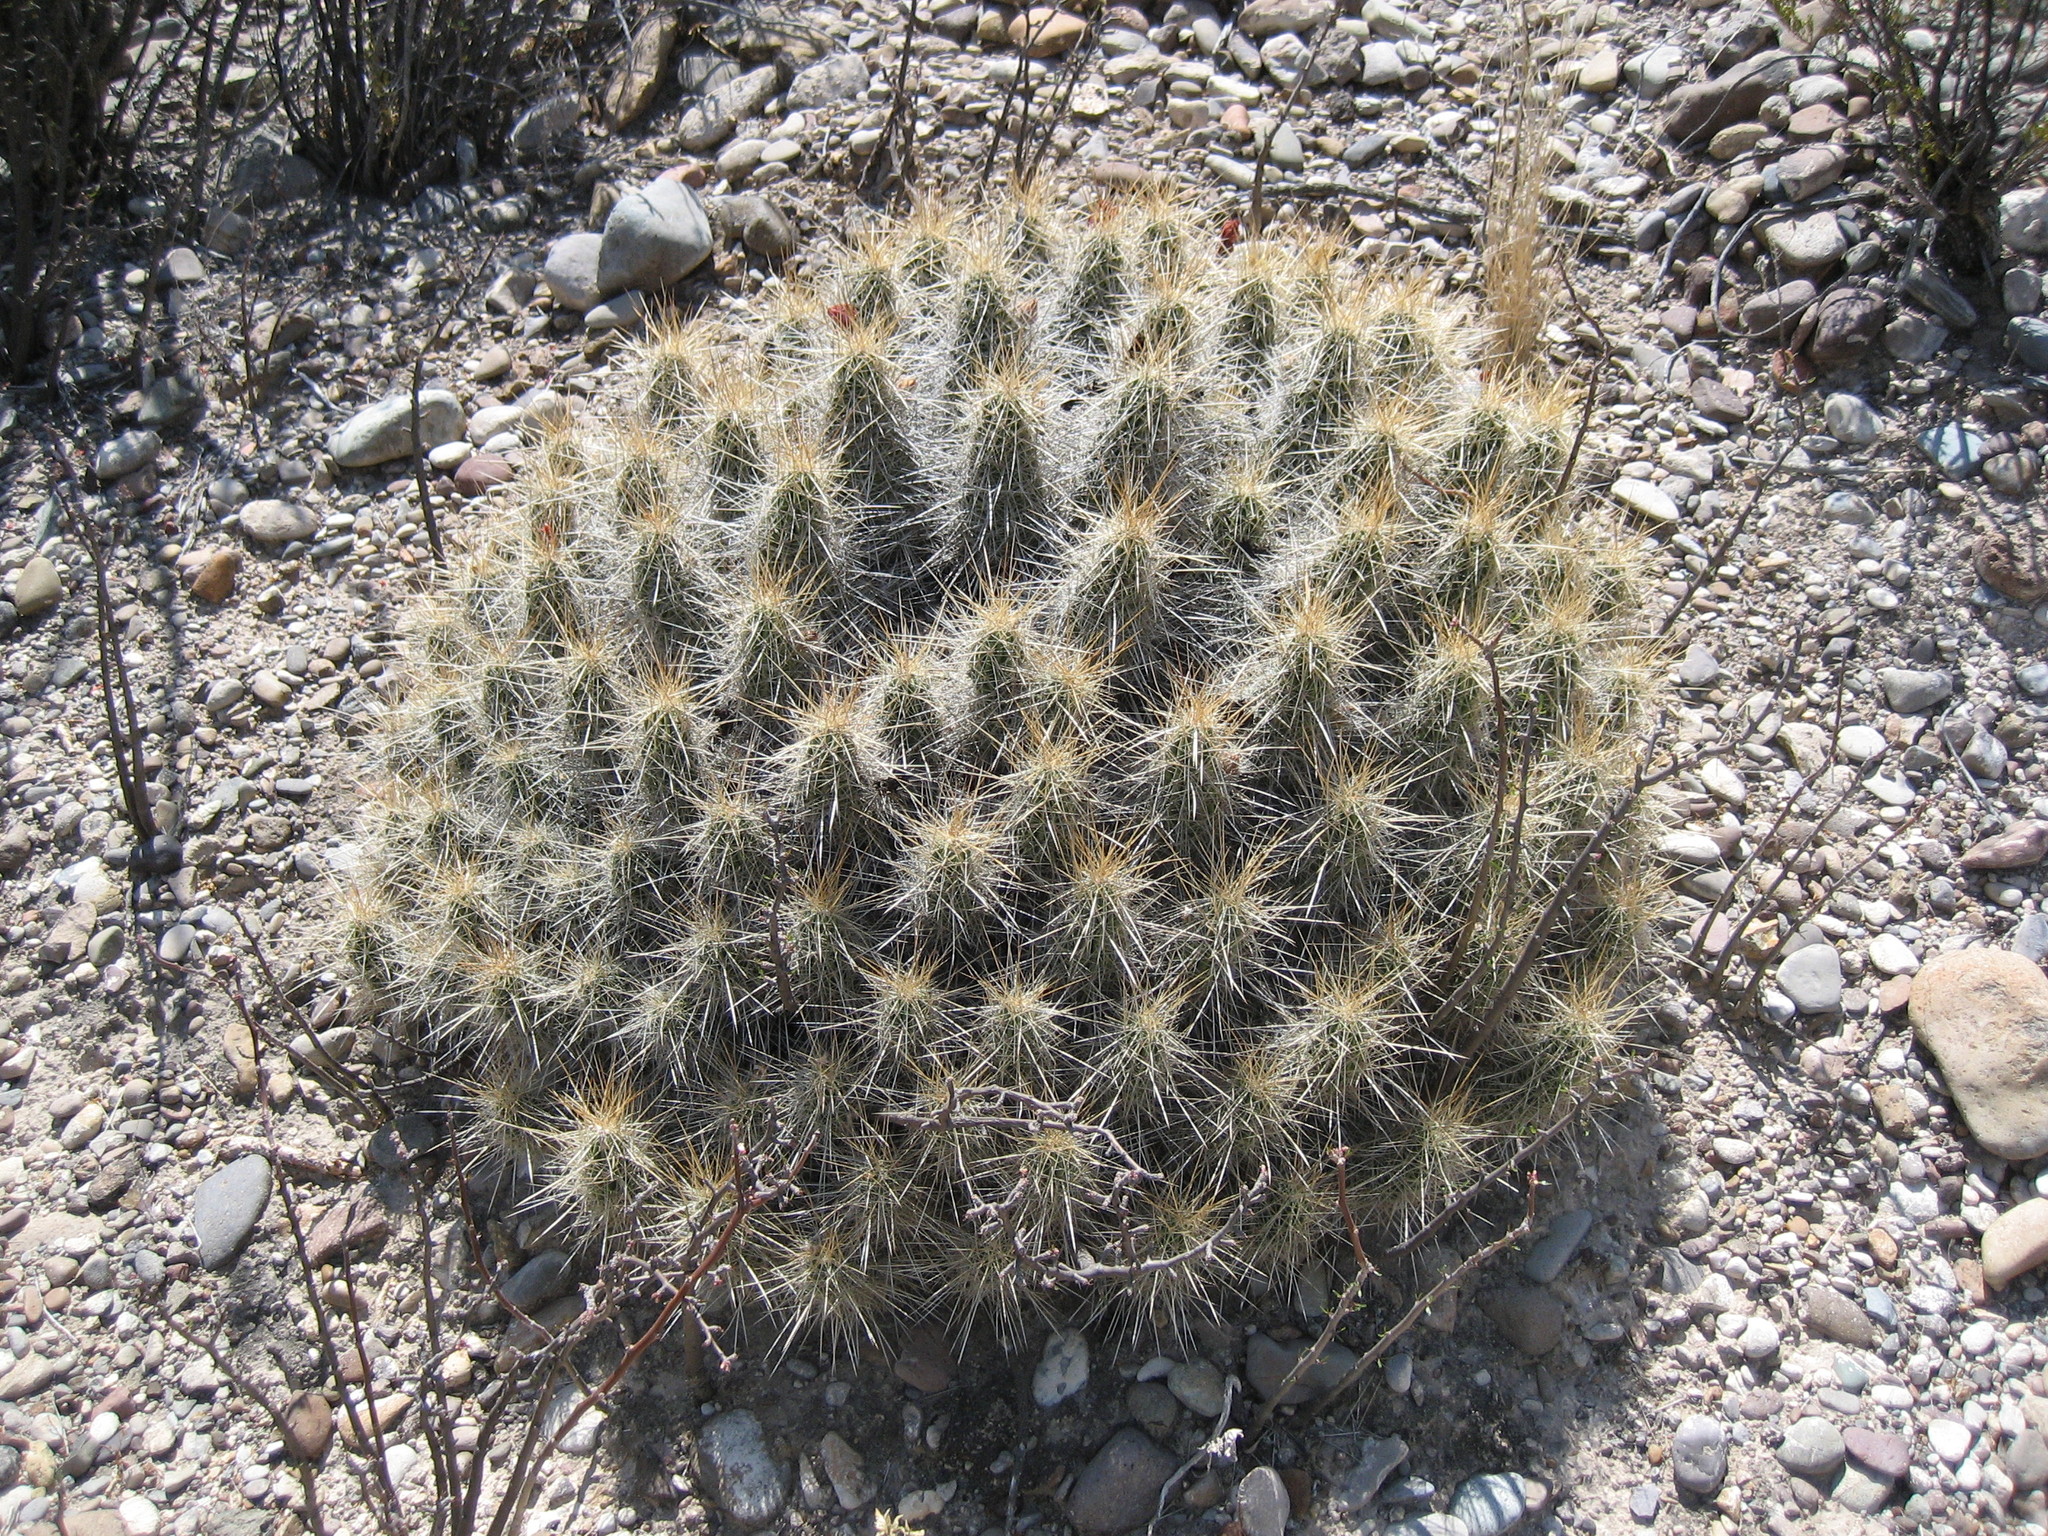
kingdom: Plantae
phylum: Tracheophyta
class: Magnoliopsida
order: Caryophyllales
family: Cactaceae
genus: Echinocereus
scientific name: Echinocereus stramineus
